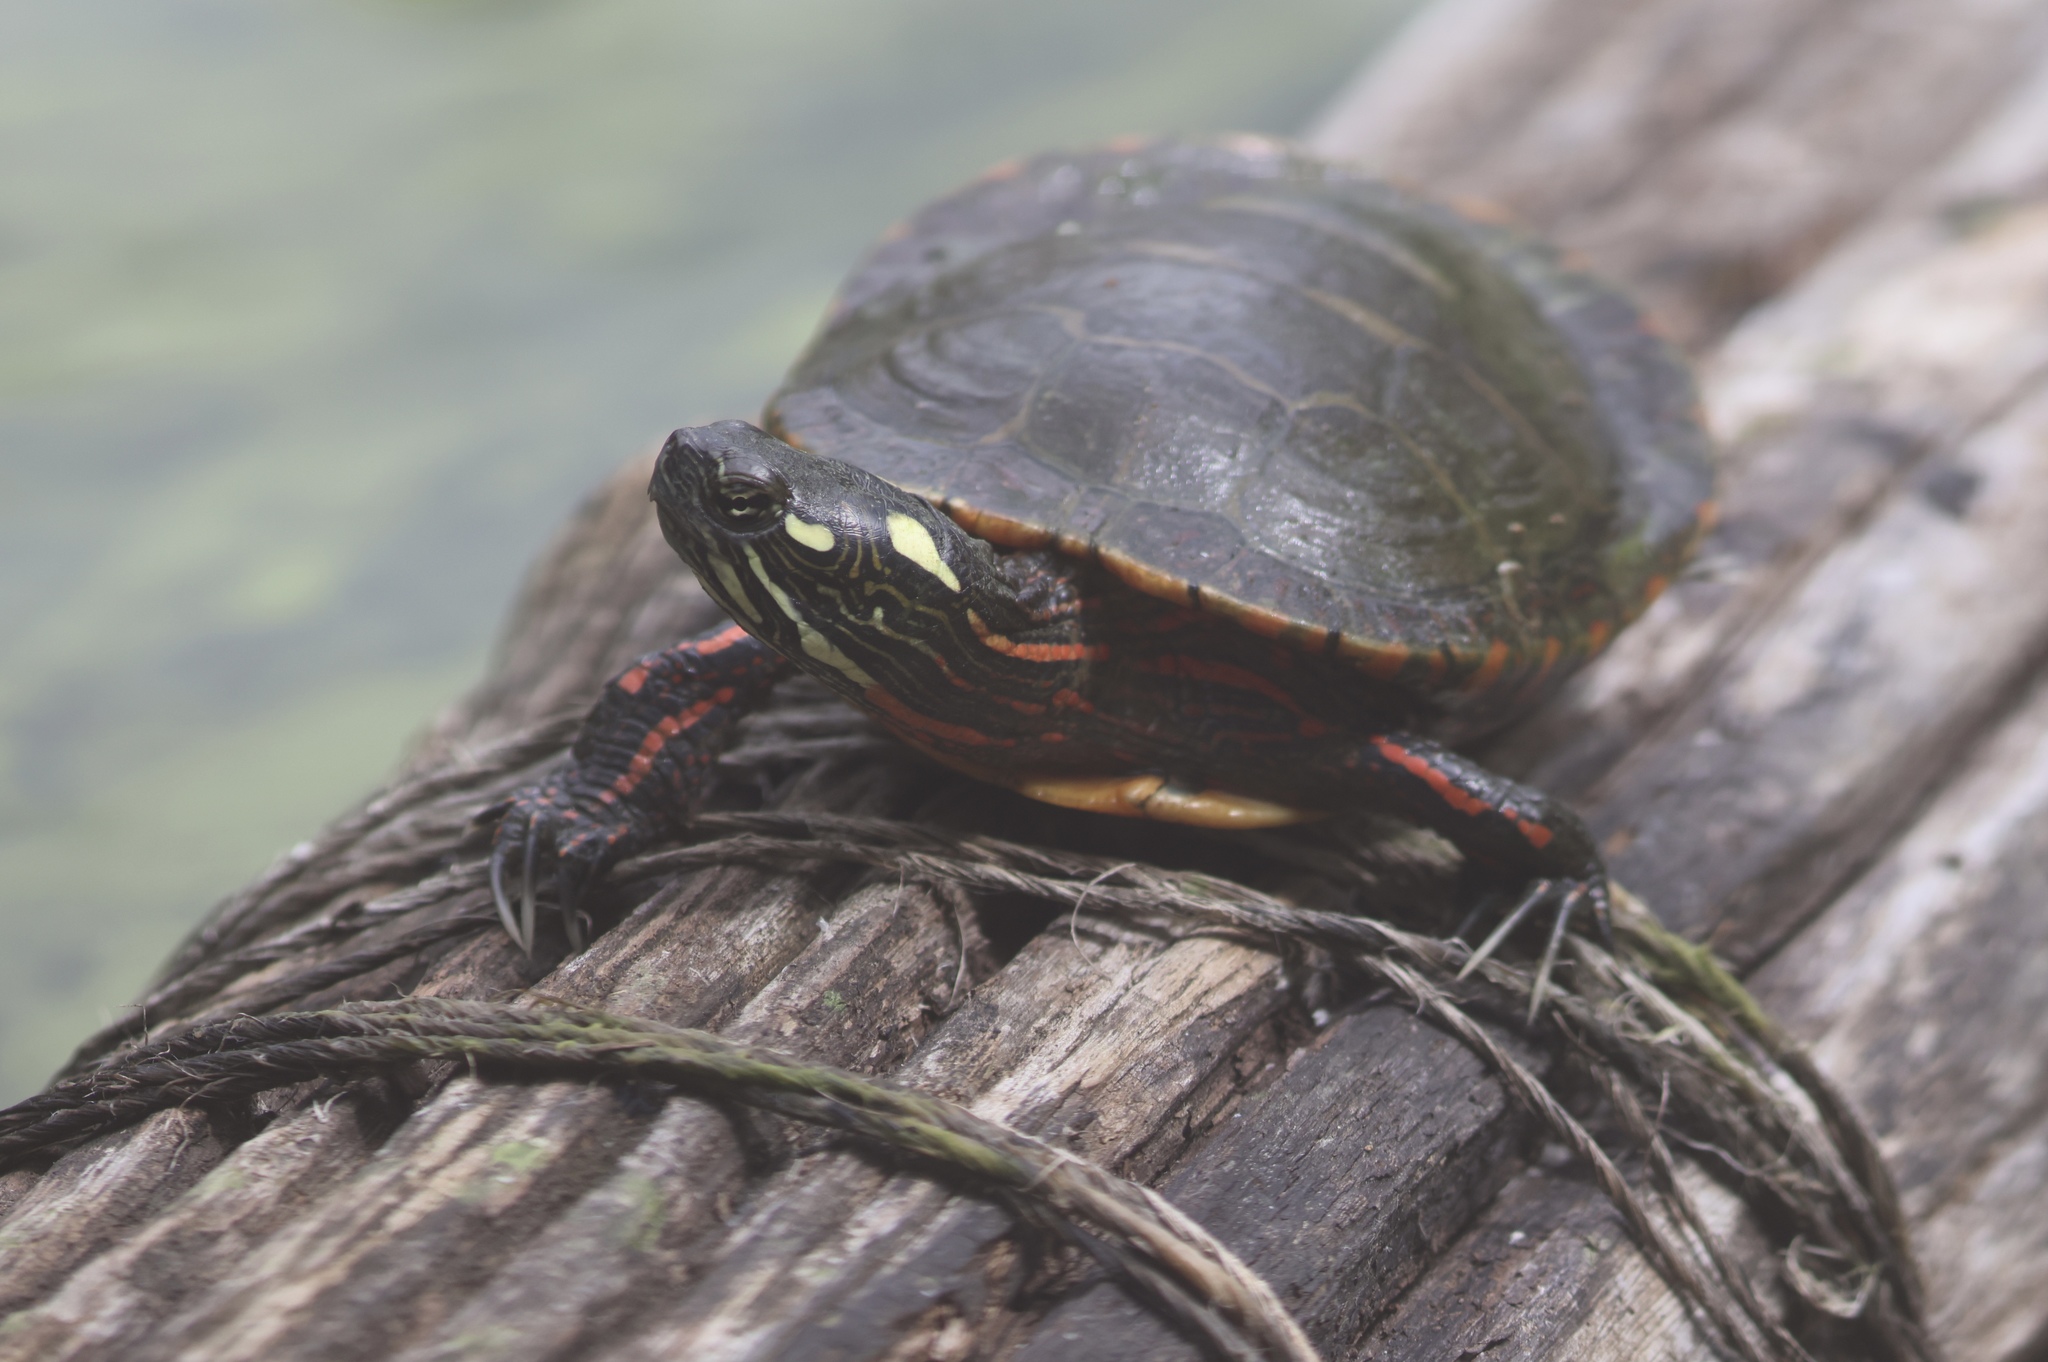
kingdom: Animalia
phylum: Chordata
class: Testudines
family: Emydidae
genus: Chrysemys
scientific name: Chrysemys picta
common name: Painted turtle
